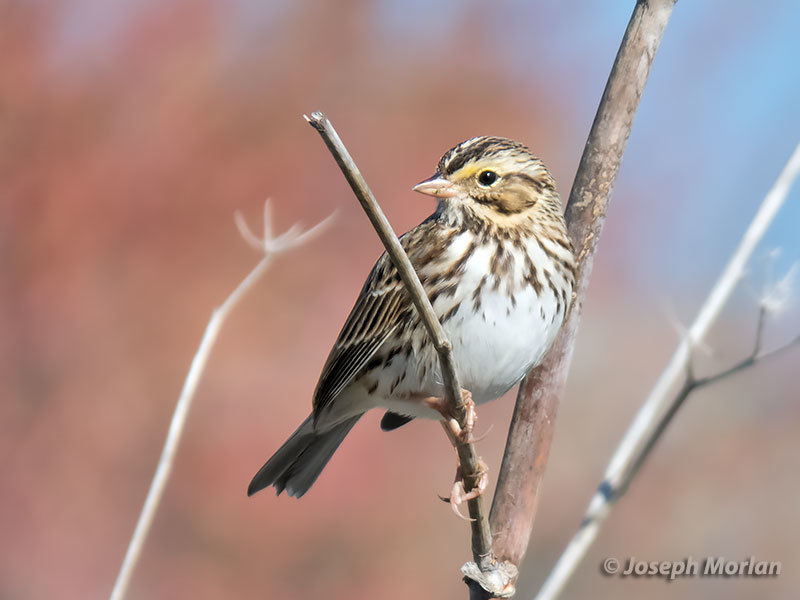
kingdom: Animalia
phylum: Chordata
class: Aves
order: Passeriformes
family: Passerellidae
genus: Passerculus
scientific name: Passerculus sandwichensis
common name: Savannah sparrow
